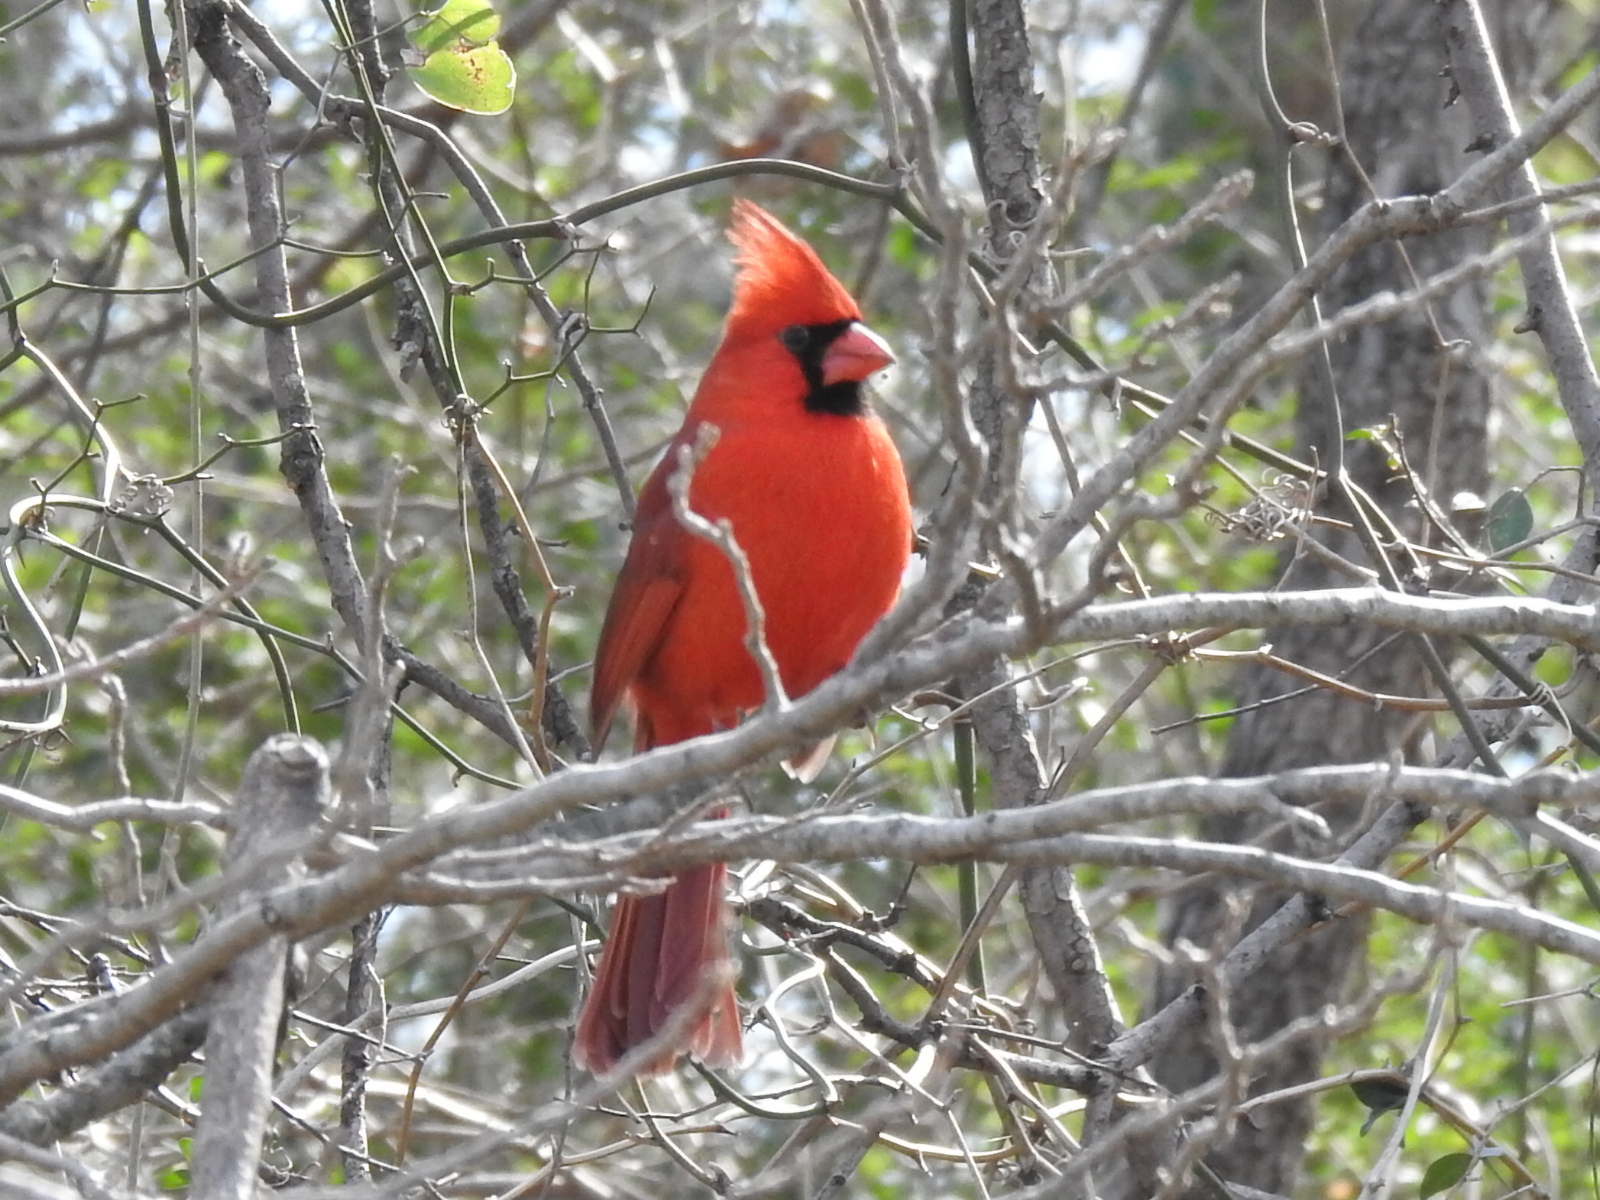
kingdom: Animalia
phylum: Chordata
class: Aves
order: Passeriformes
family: Cardinalidae
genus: Cardinalis
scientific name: Cardinalis cardinalis
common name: Northern cardinal
